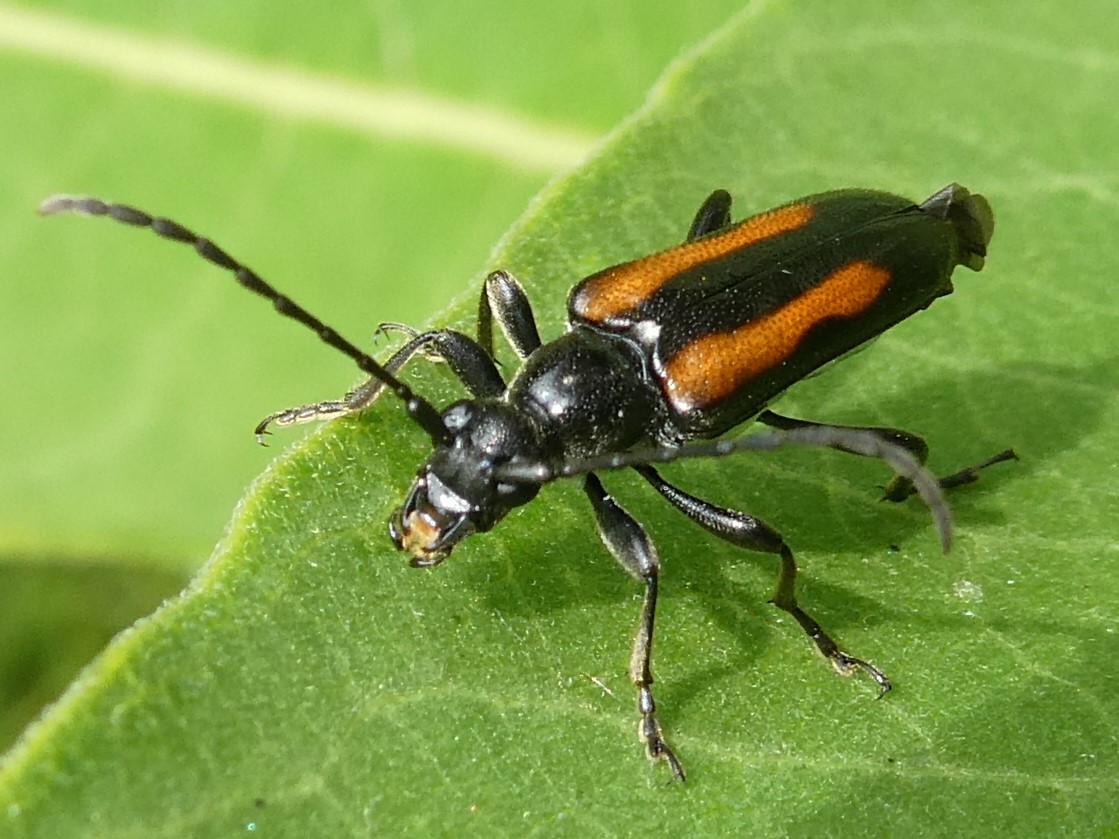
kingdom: Animalia
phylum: Arthropoda
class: Insecta
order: Coleoptera
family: Cerambycidae
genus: Strangalepta
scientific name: Strangalepta abbreviata
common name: Strangalepta flower longhorn beetle
